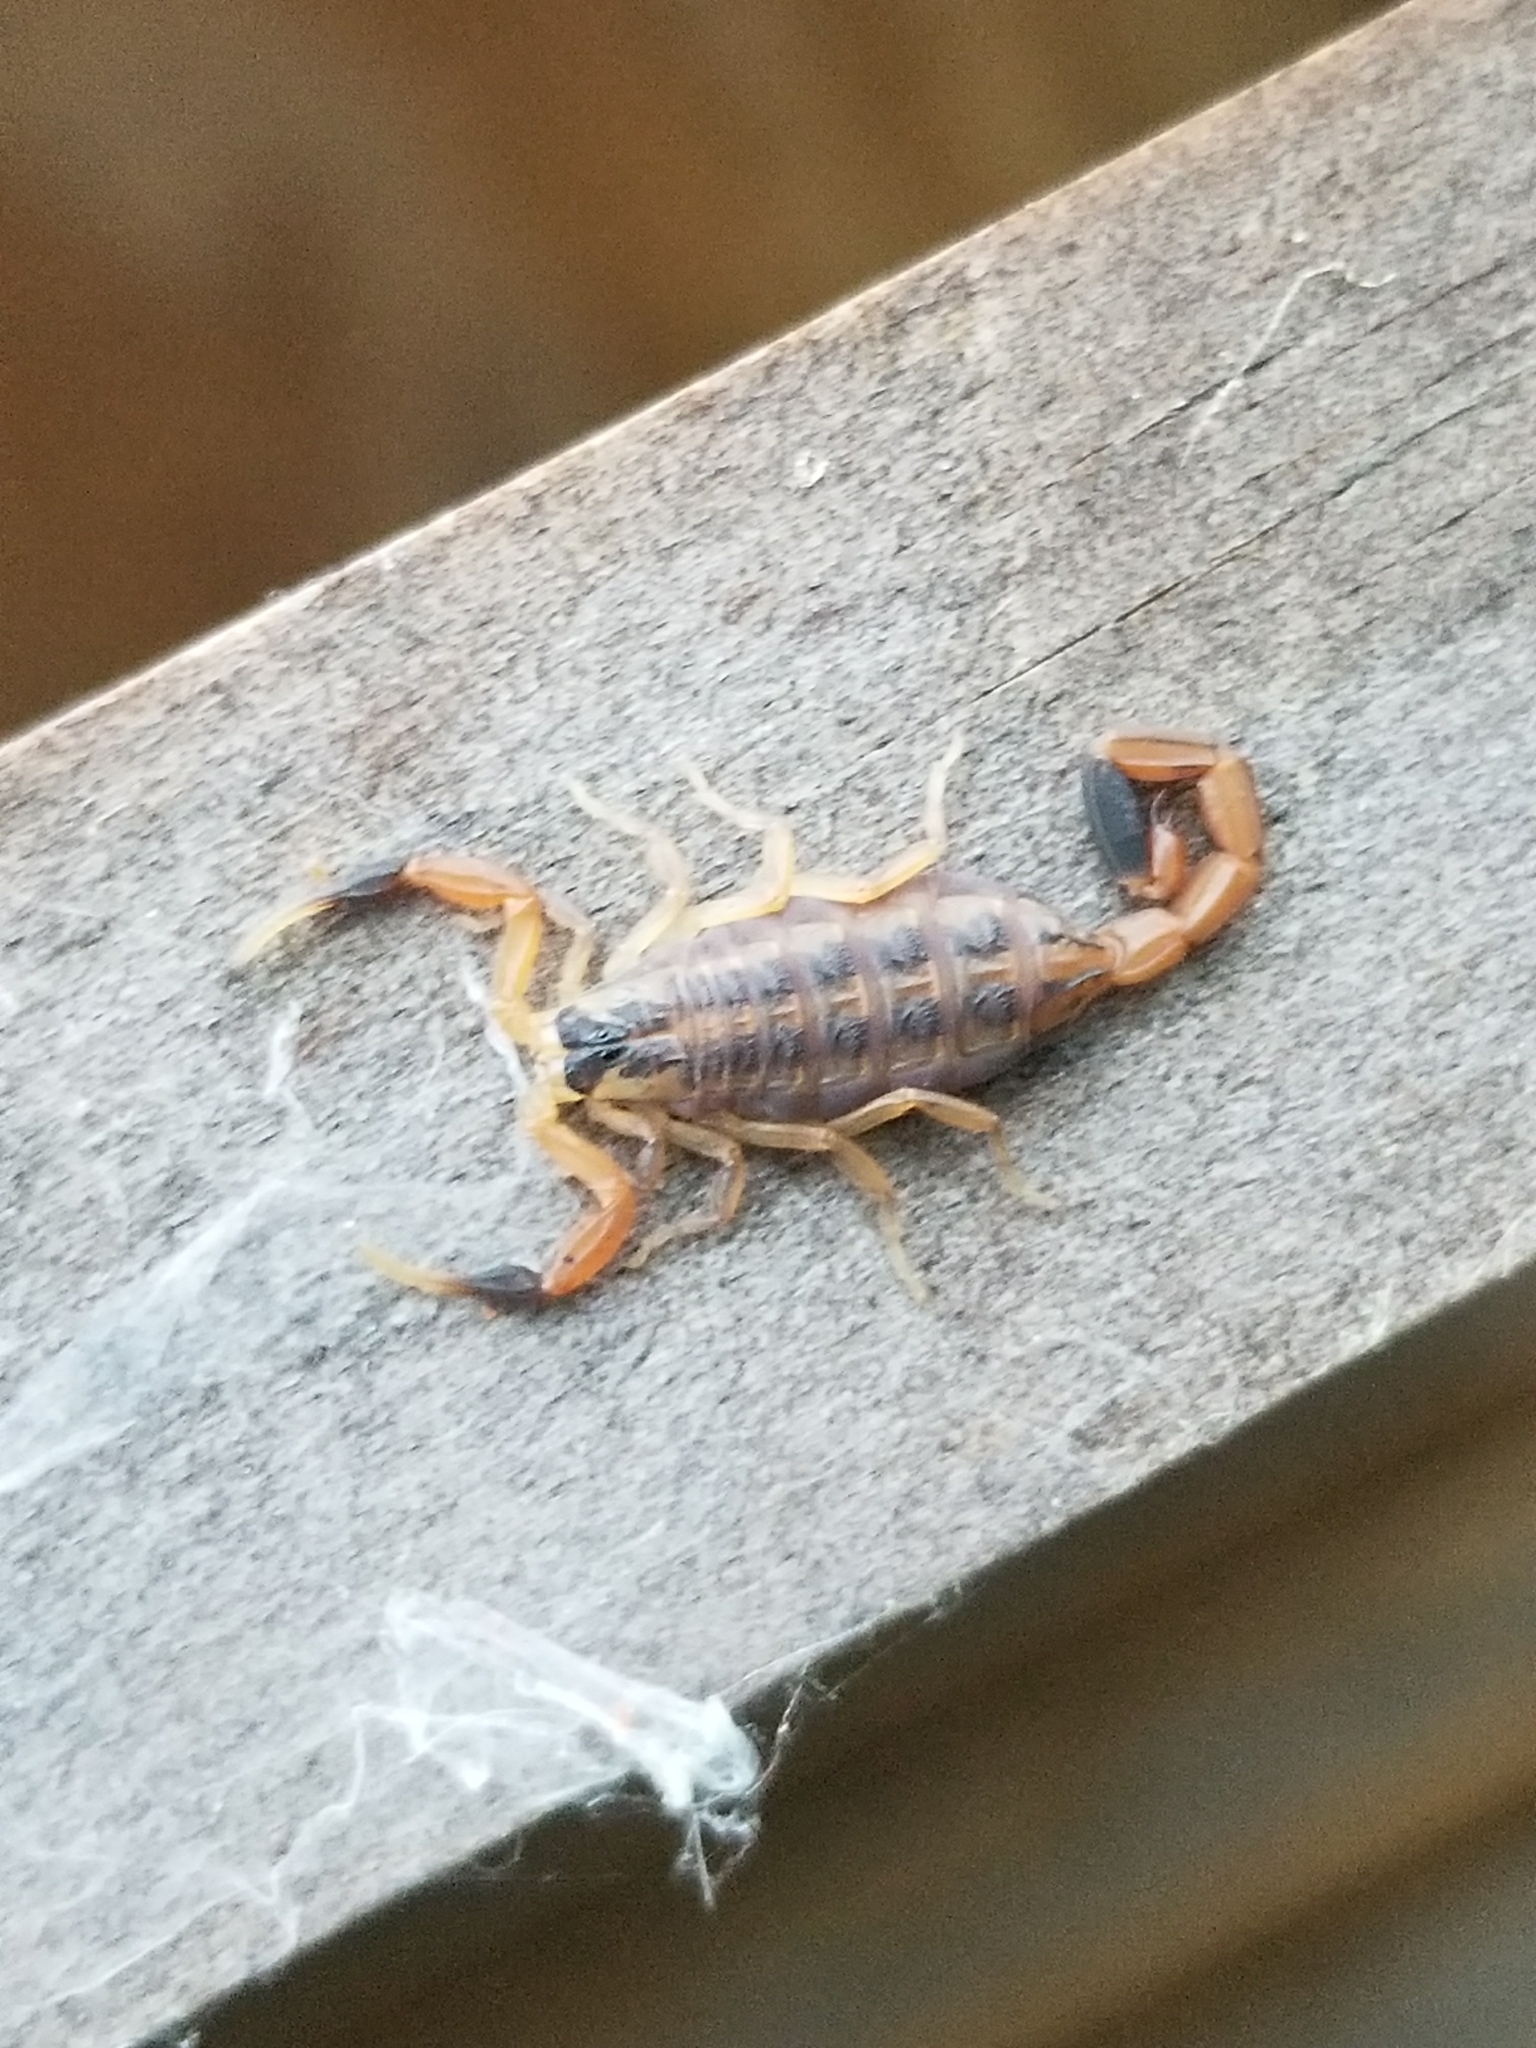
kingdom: Animalia
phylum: Arthropoda
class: Arachnida
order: Scorpiones
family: Buthidae
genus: Centruroides
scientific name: Centruroides vittatus
